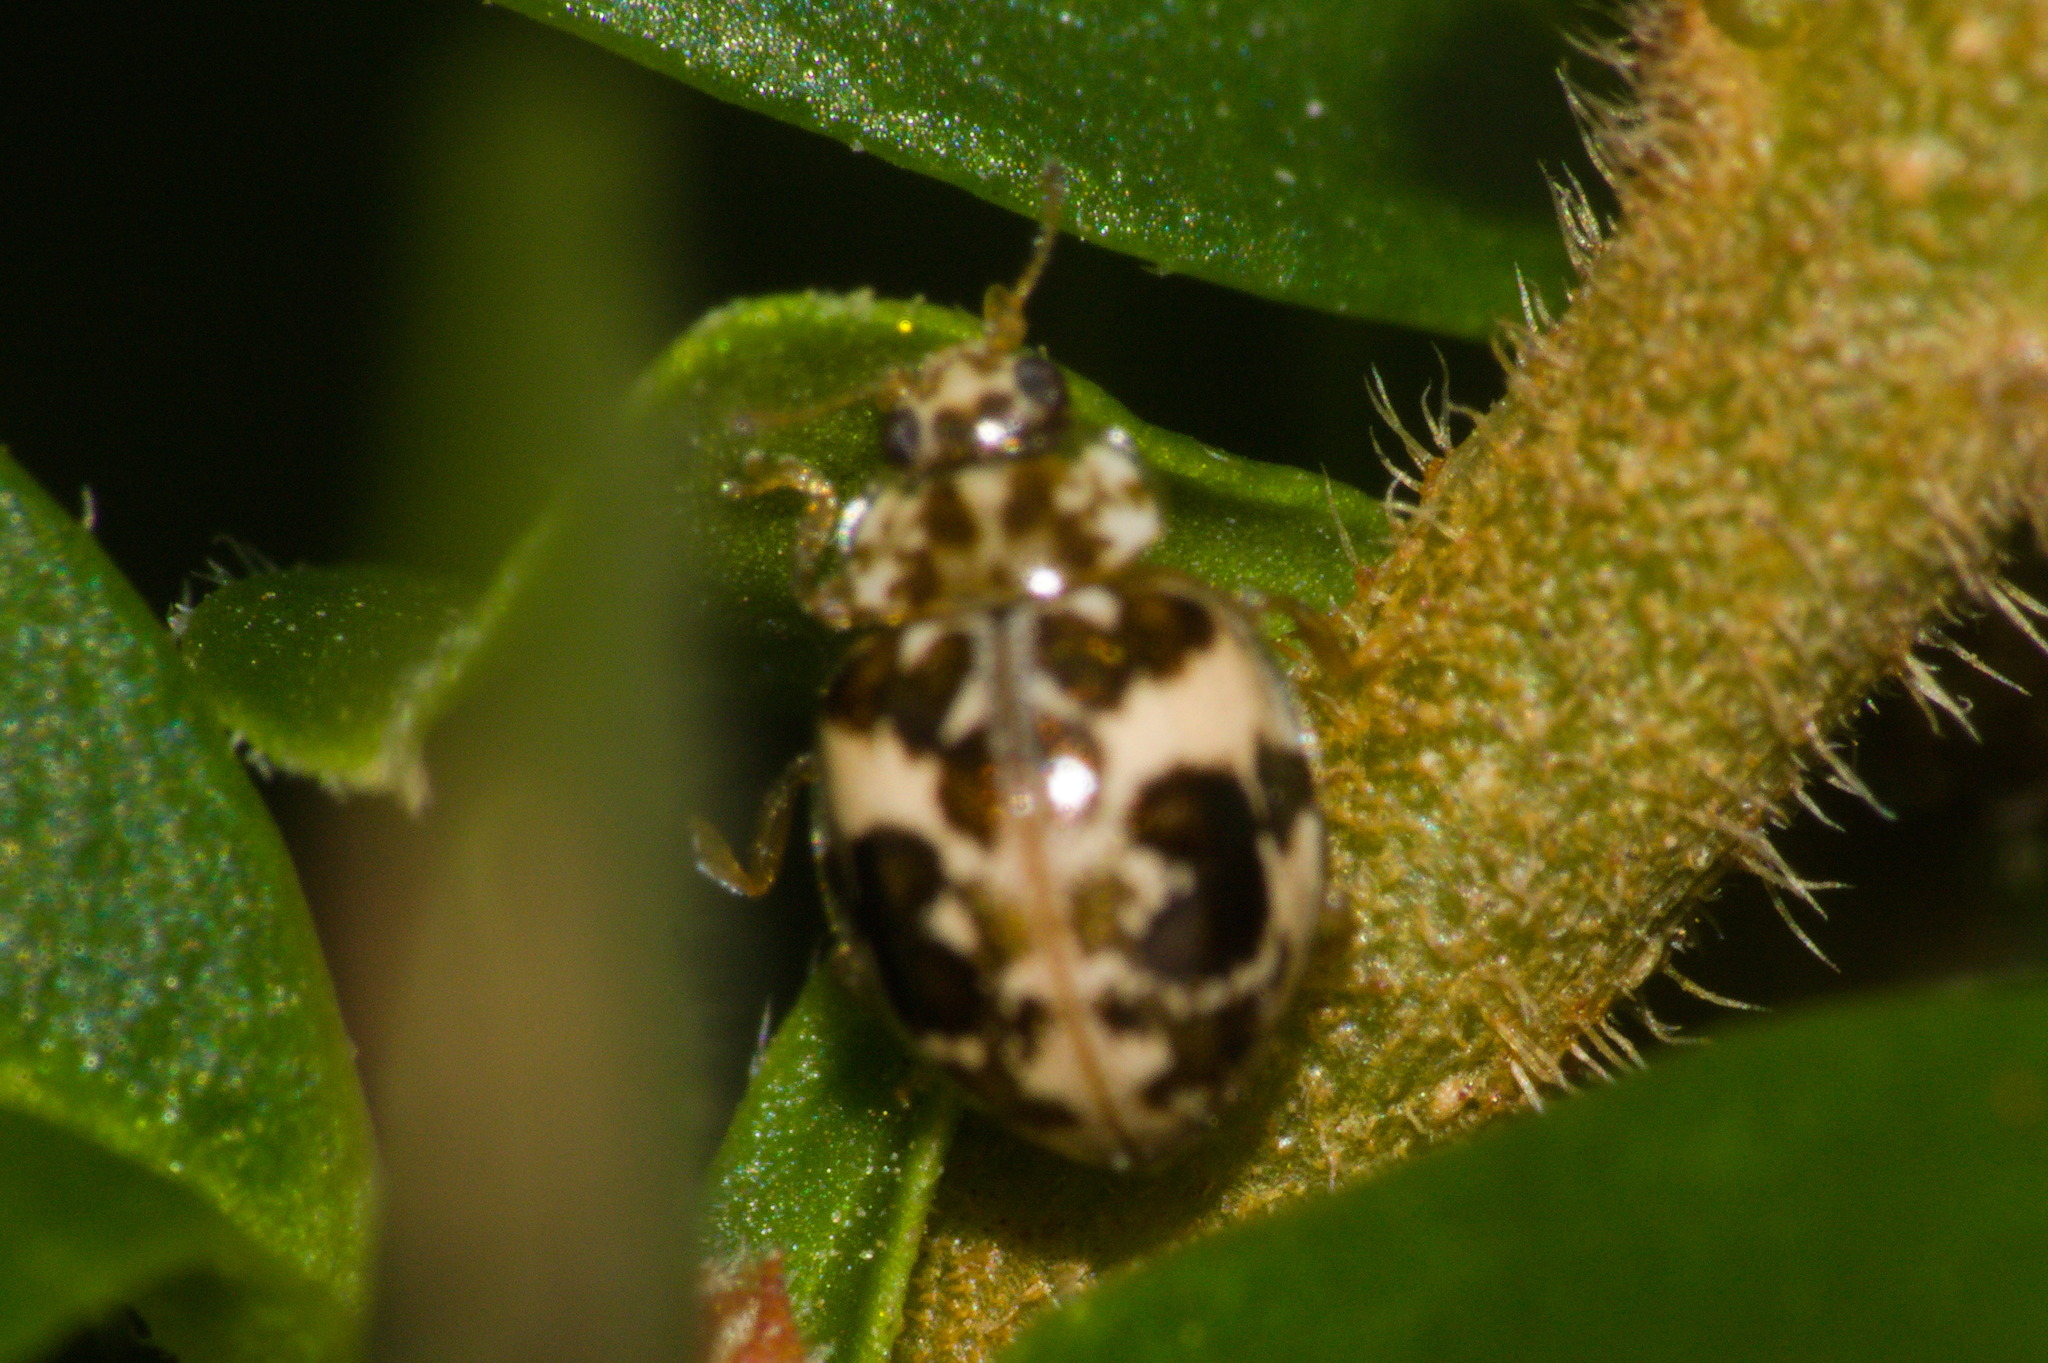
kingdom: Animalia
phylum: Arthropoda
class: Insecta
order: Coleoptera
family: Coccinellidae
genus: Psyllobora
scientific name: Psyllobora
